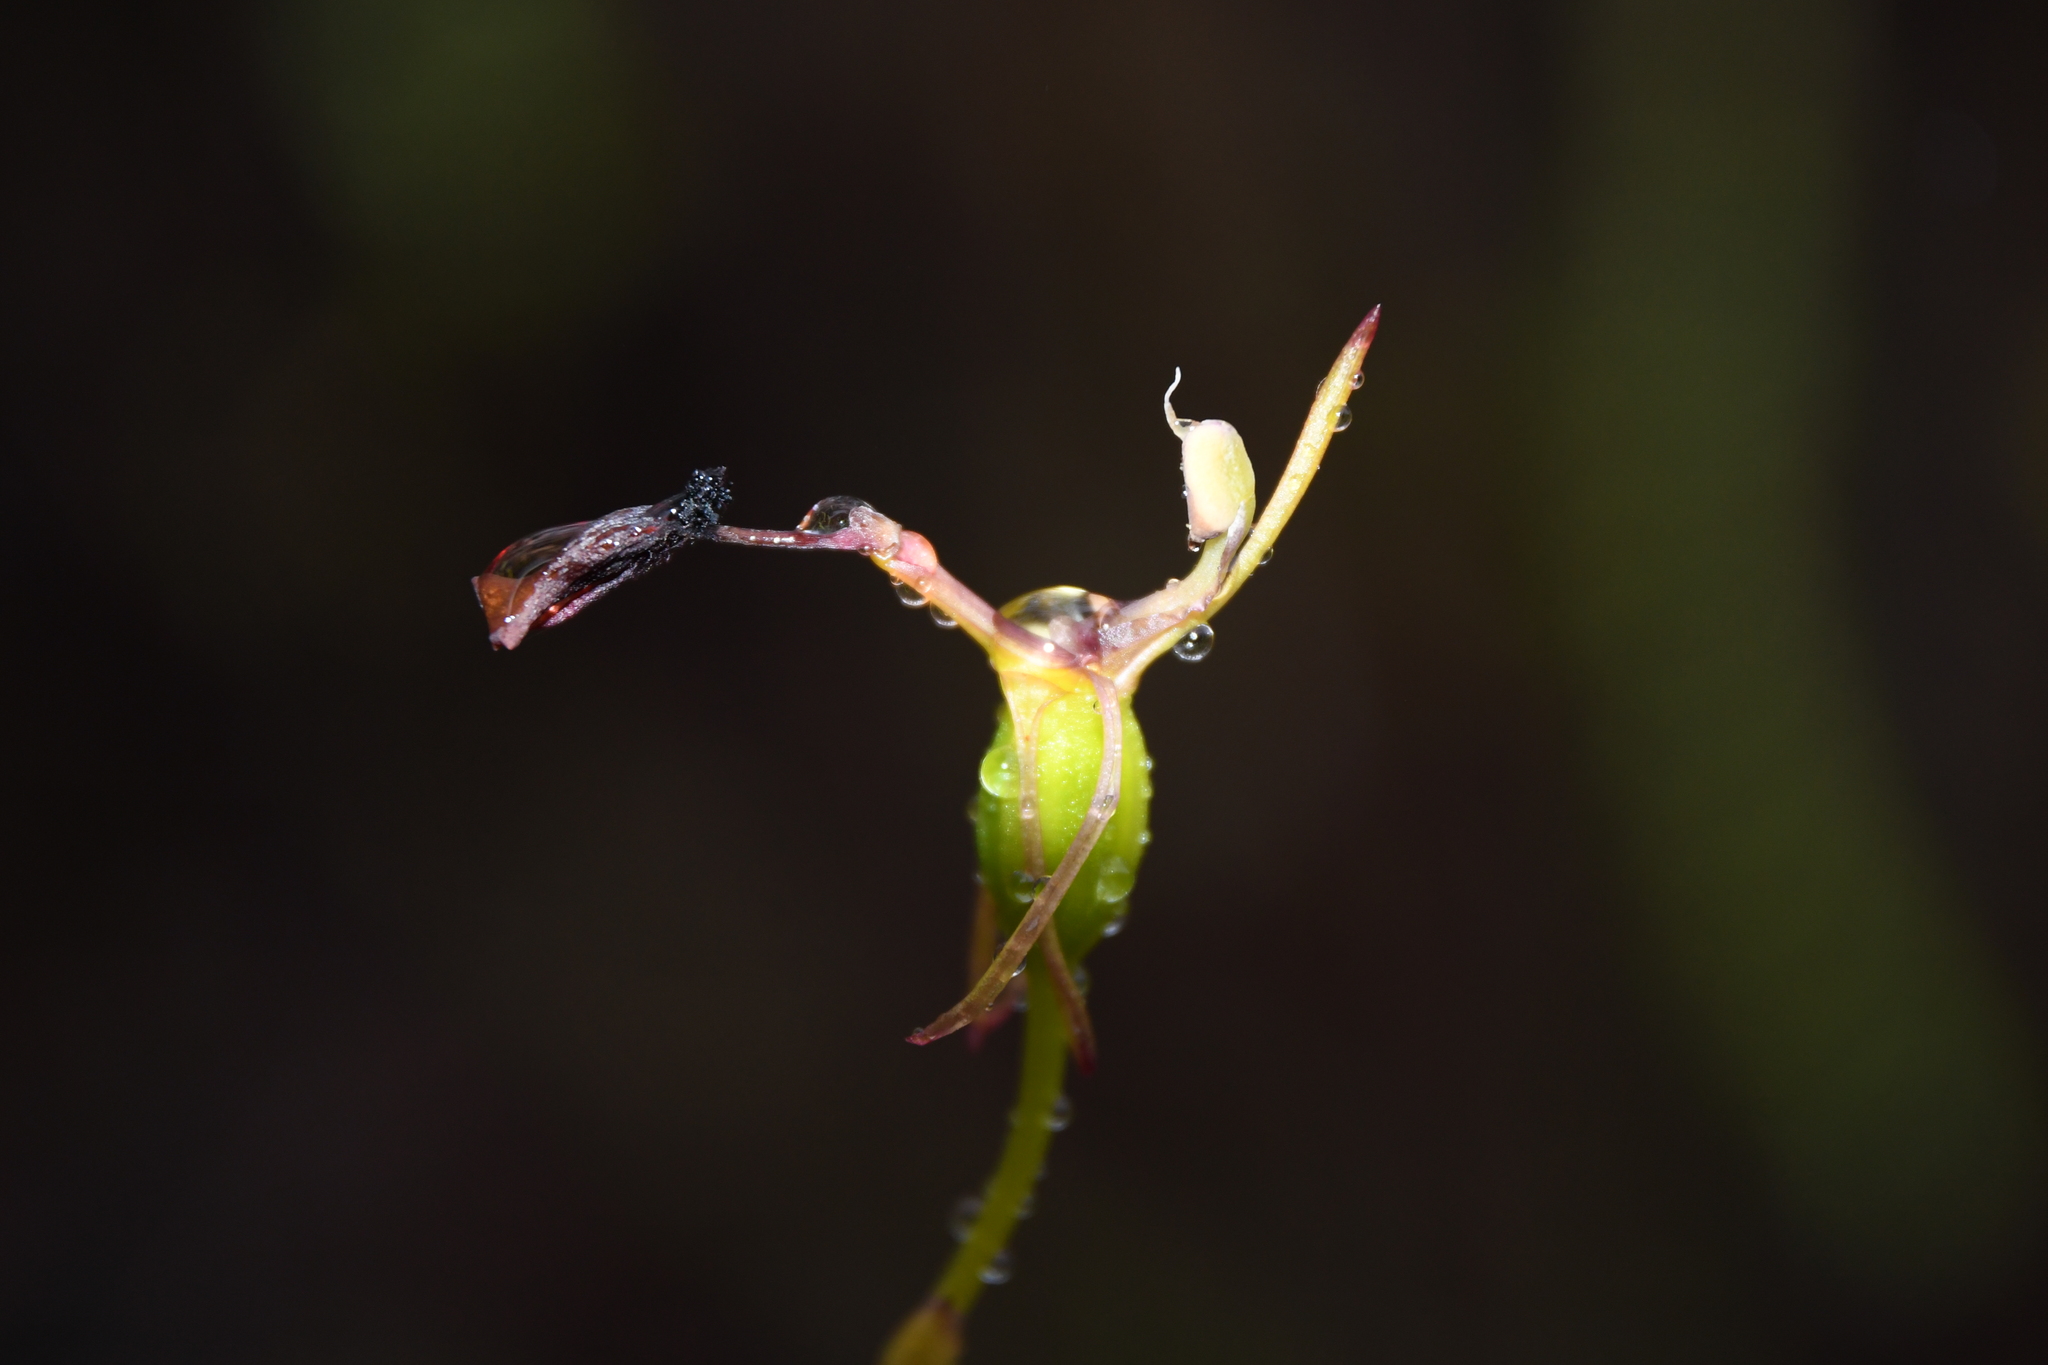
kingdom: Plantae
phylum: Tracheophyta
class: Liliopsida
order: Asparagales
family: Orchidaceae
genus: Drakaea
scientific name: Drakaea thynniphila
